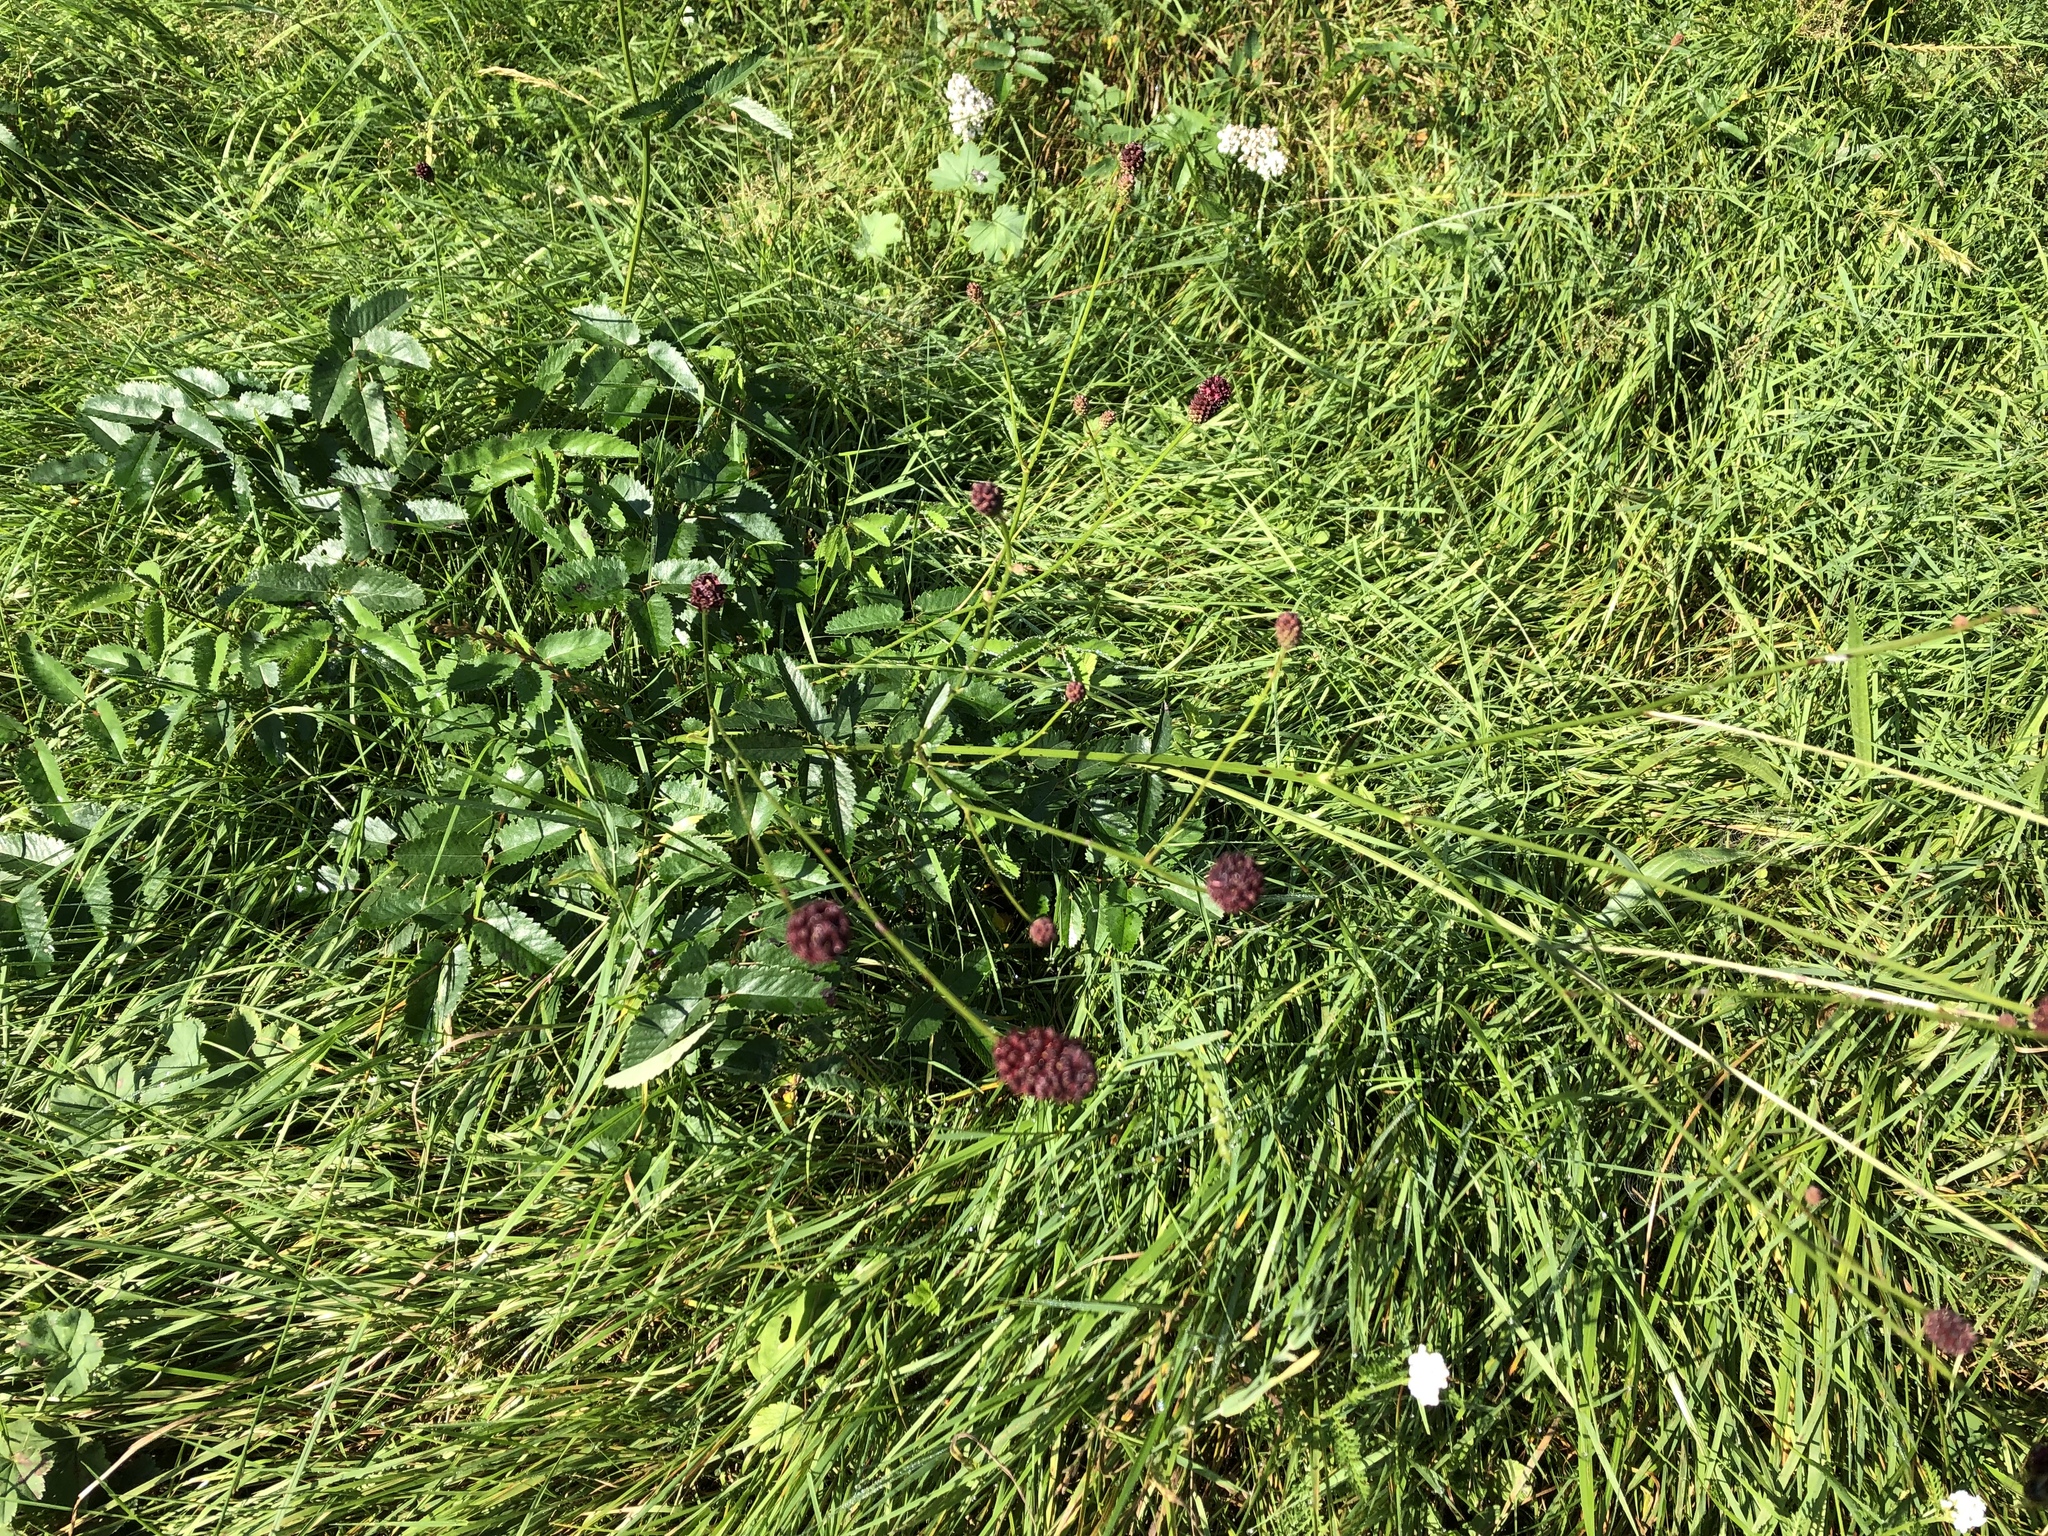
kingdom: Plantae
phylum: Tracheophyta
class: Magnoliopsida
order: Rosales
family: Rosaceae
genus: Sanguisorba
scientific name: Sanguisorba officinalis
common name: Great burnet
